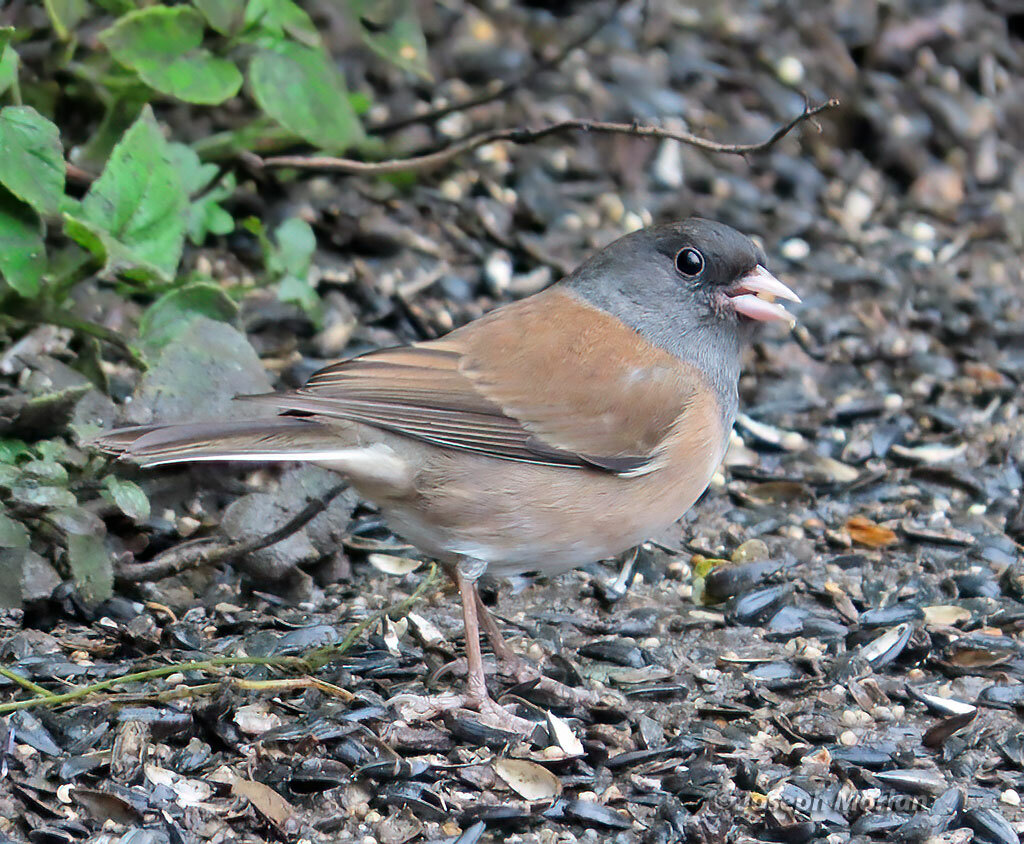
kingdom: Animalia
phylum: Chordata
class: Aves
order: Passeriformes
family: Passerellidae
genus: Junco
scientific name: Junco hyemalis
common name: Dark-eyed junco
